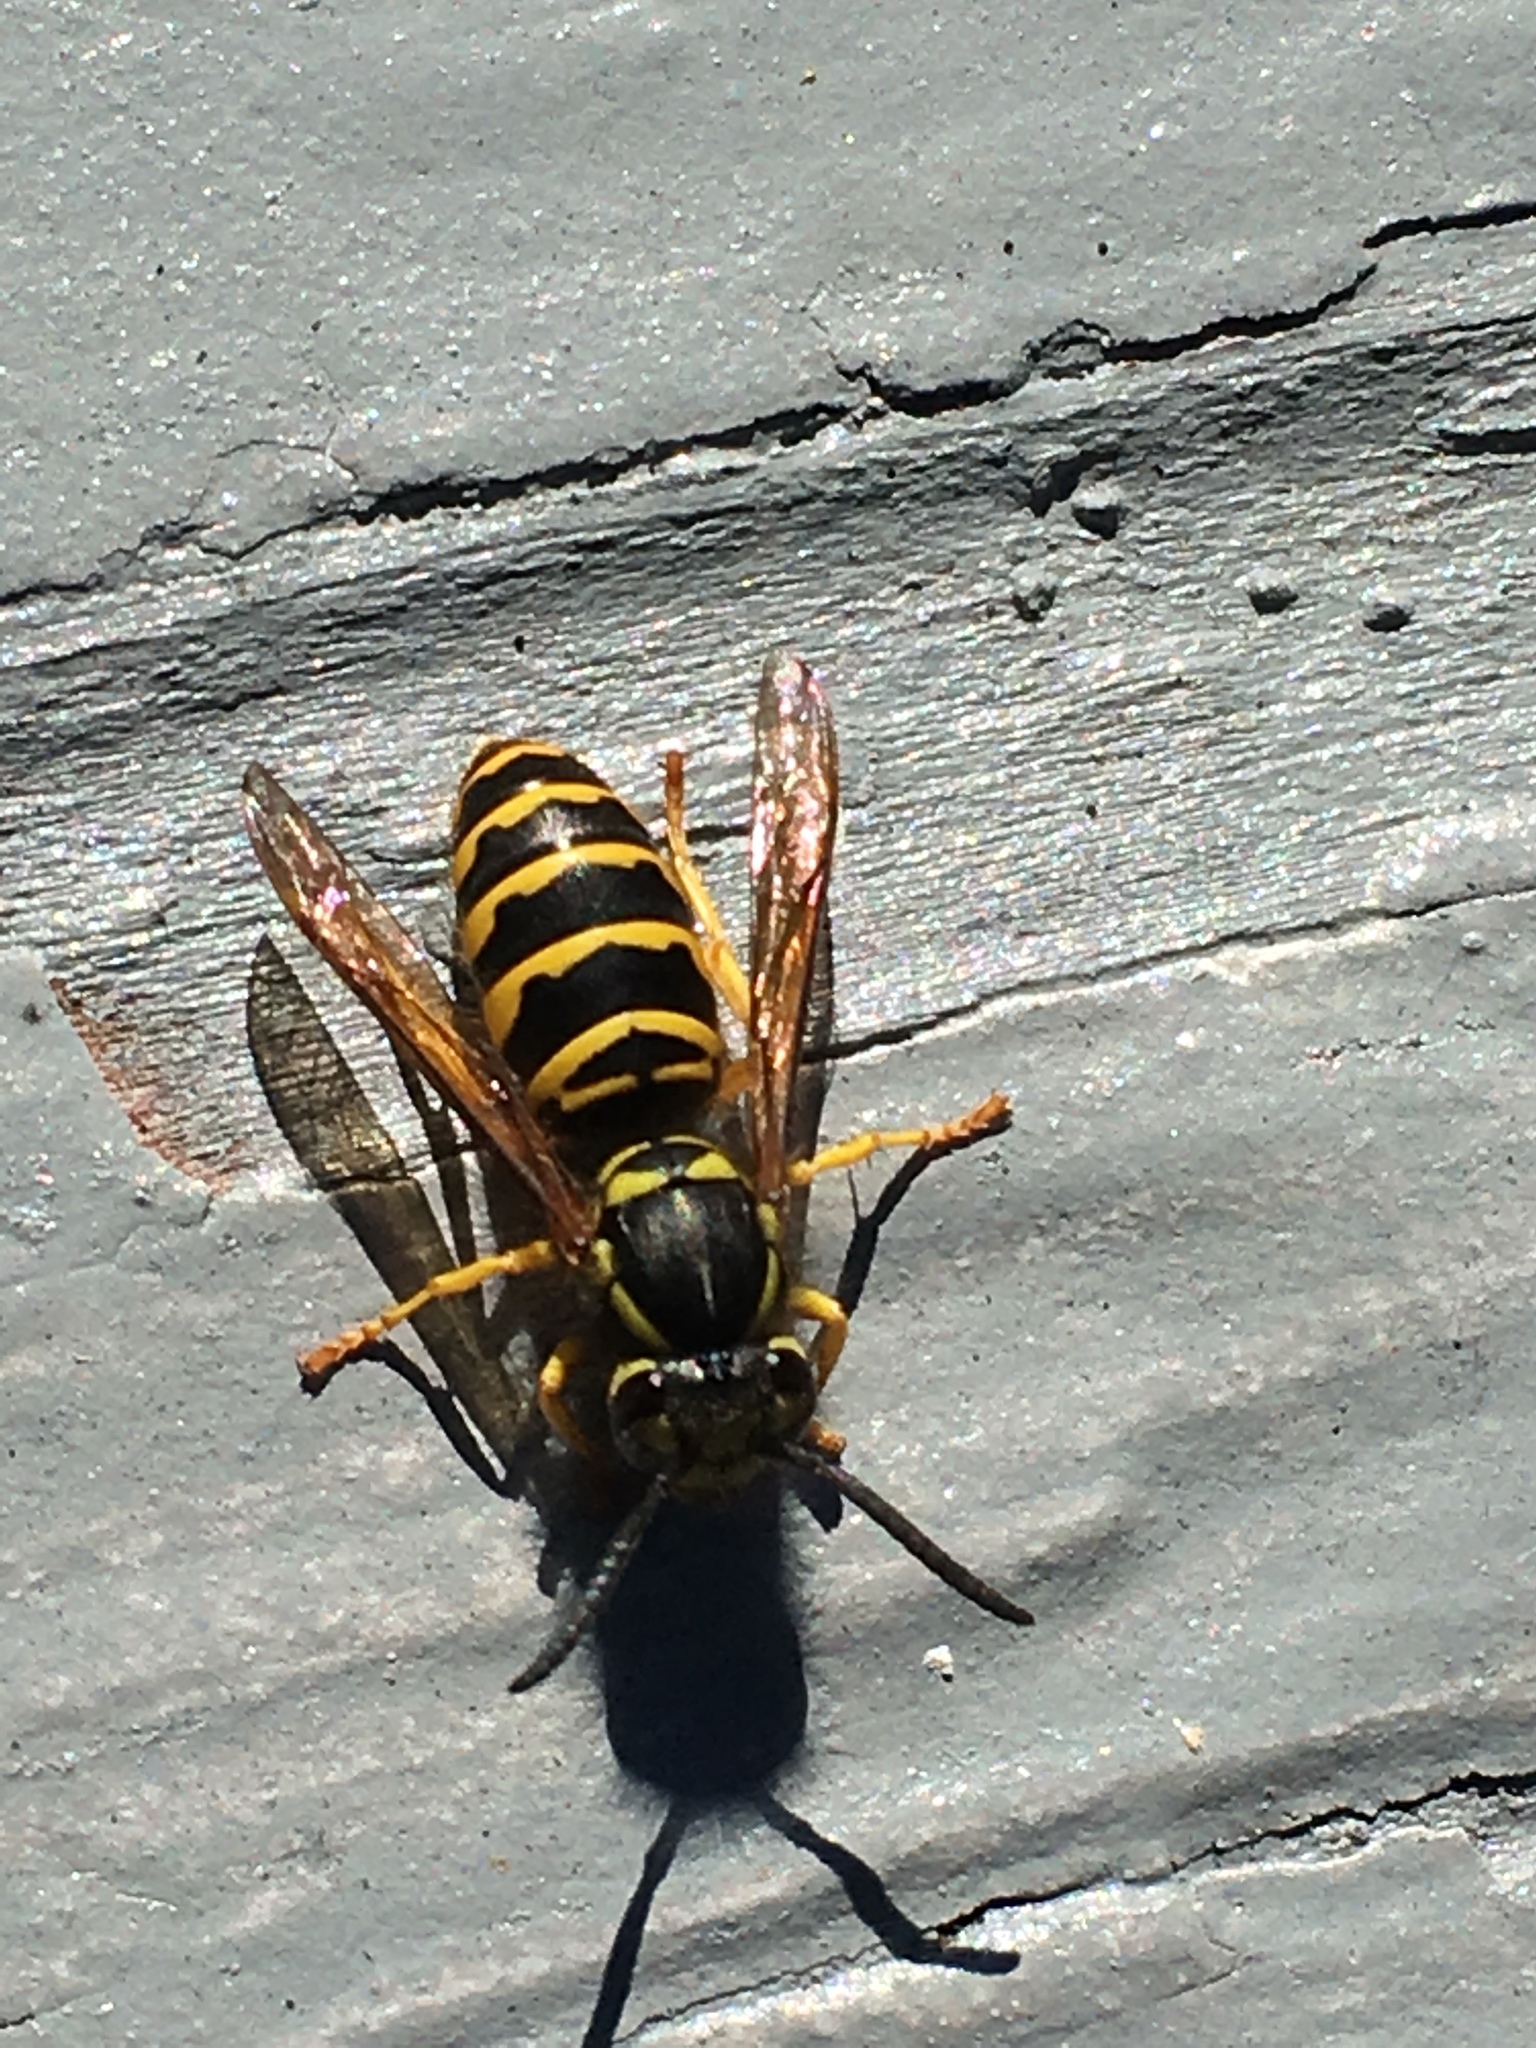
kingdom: Animalia
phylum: Arthropoda
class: Insecta
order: Hymenoptera
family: Vespidae
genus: Vespula
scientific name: Vespula maculifrons
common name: Eastern yellowjacket
